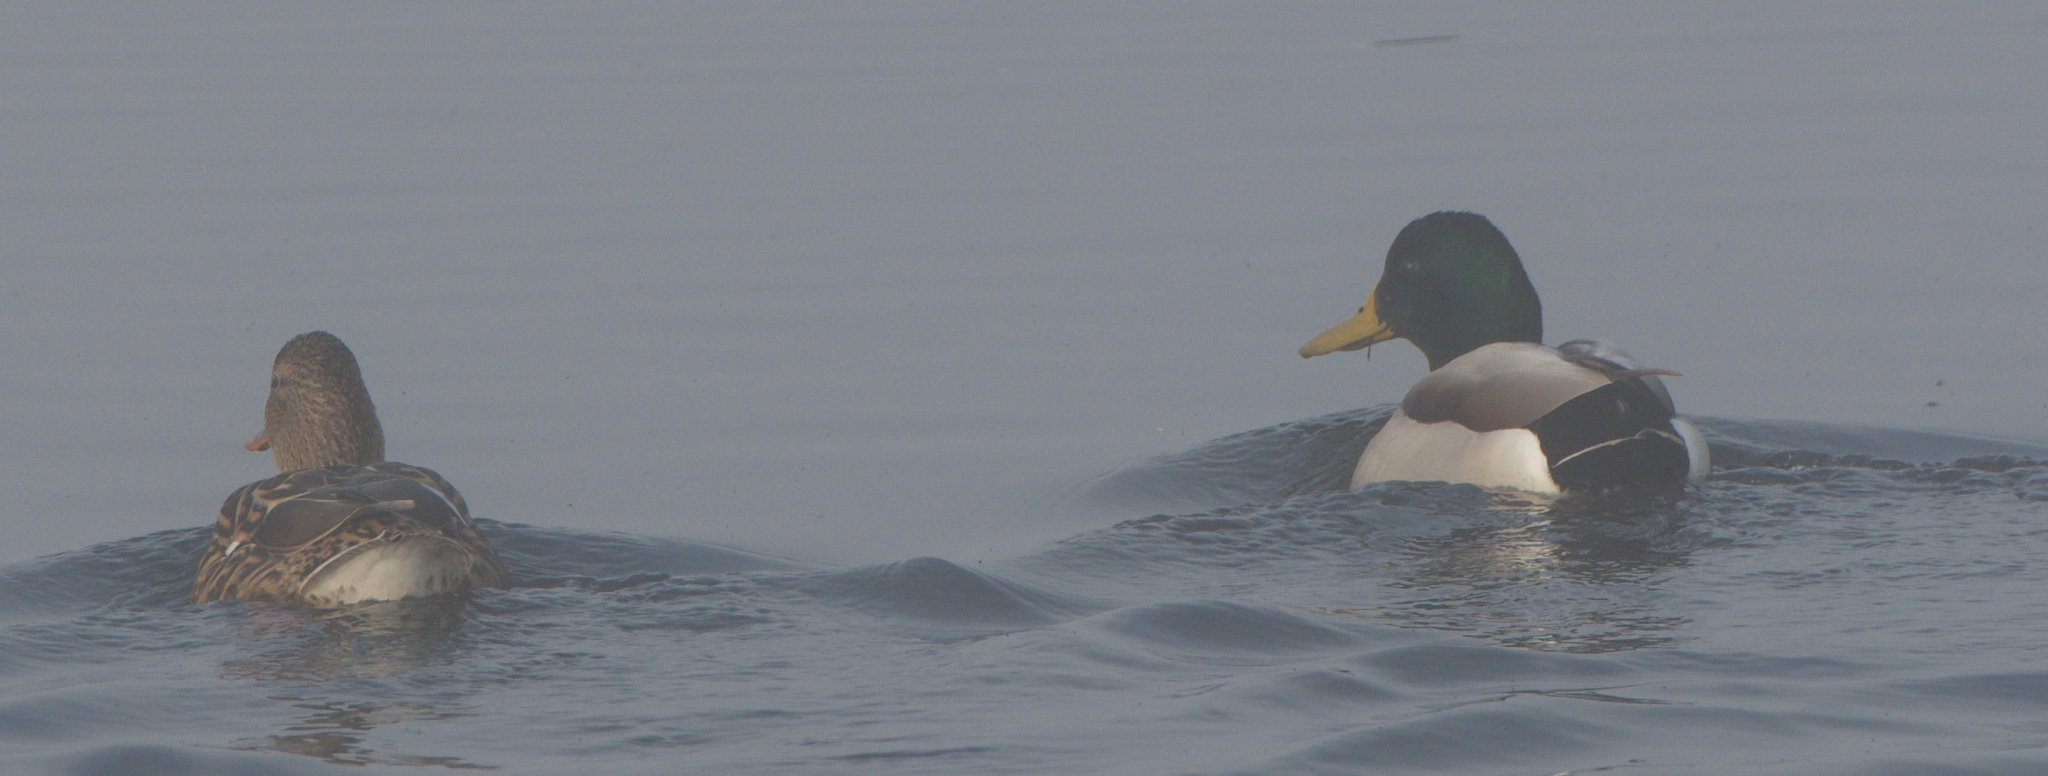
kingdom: Animalia
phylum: Chordata
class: Aves
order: Anseriformes
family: Anatidae
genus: Anas
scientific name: Anas platyrhynchos
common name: Mallard
